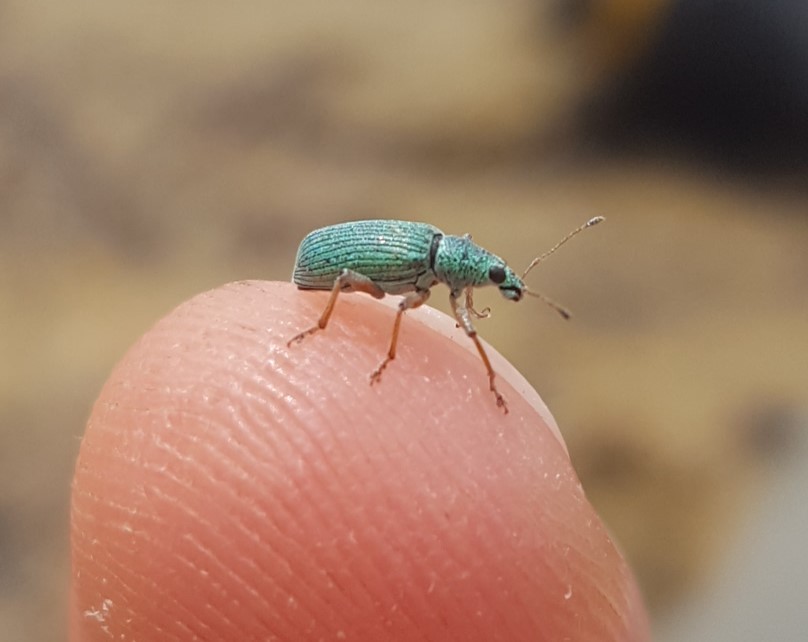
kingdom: Animalia
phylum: Arthropoda
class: Insecta
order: Coleoptera
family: Curculionidae
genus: Polydrusus
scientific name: Polydrusus formosus
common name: Weevil
